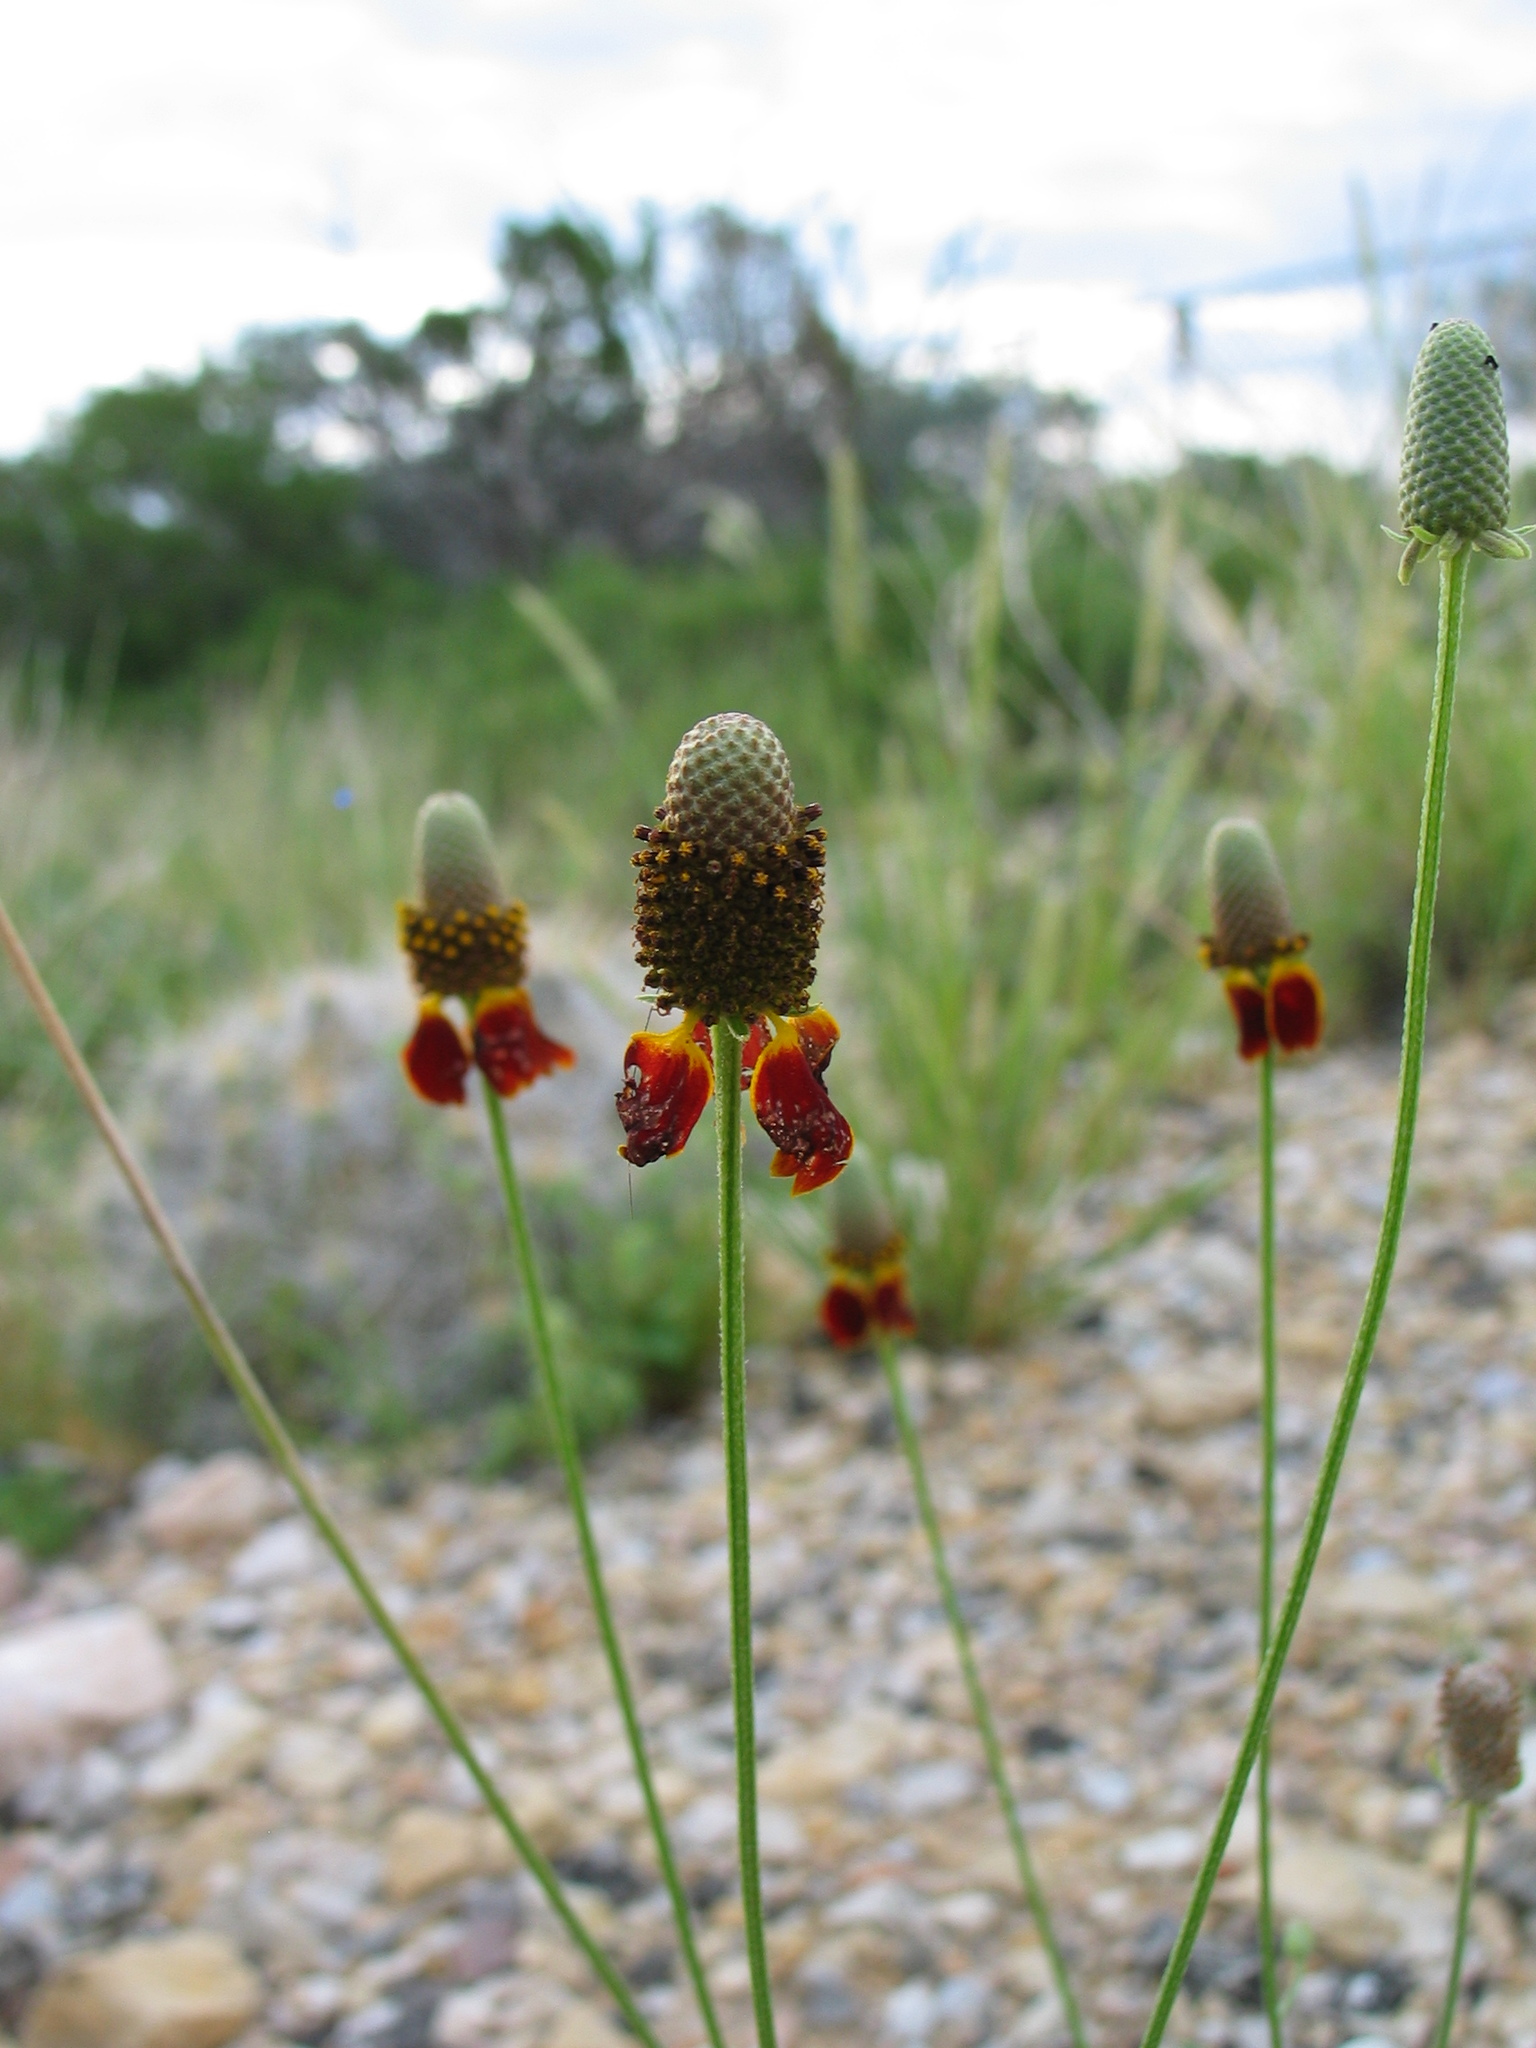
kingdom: Plantae
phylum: Tracheophyta
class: Magnoliopsida
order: Asterales
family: Asteraceae
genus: Ratibida
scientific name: Ratibida columnifera
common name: Prairie coneflower
